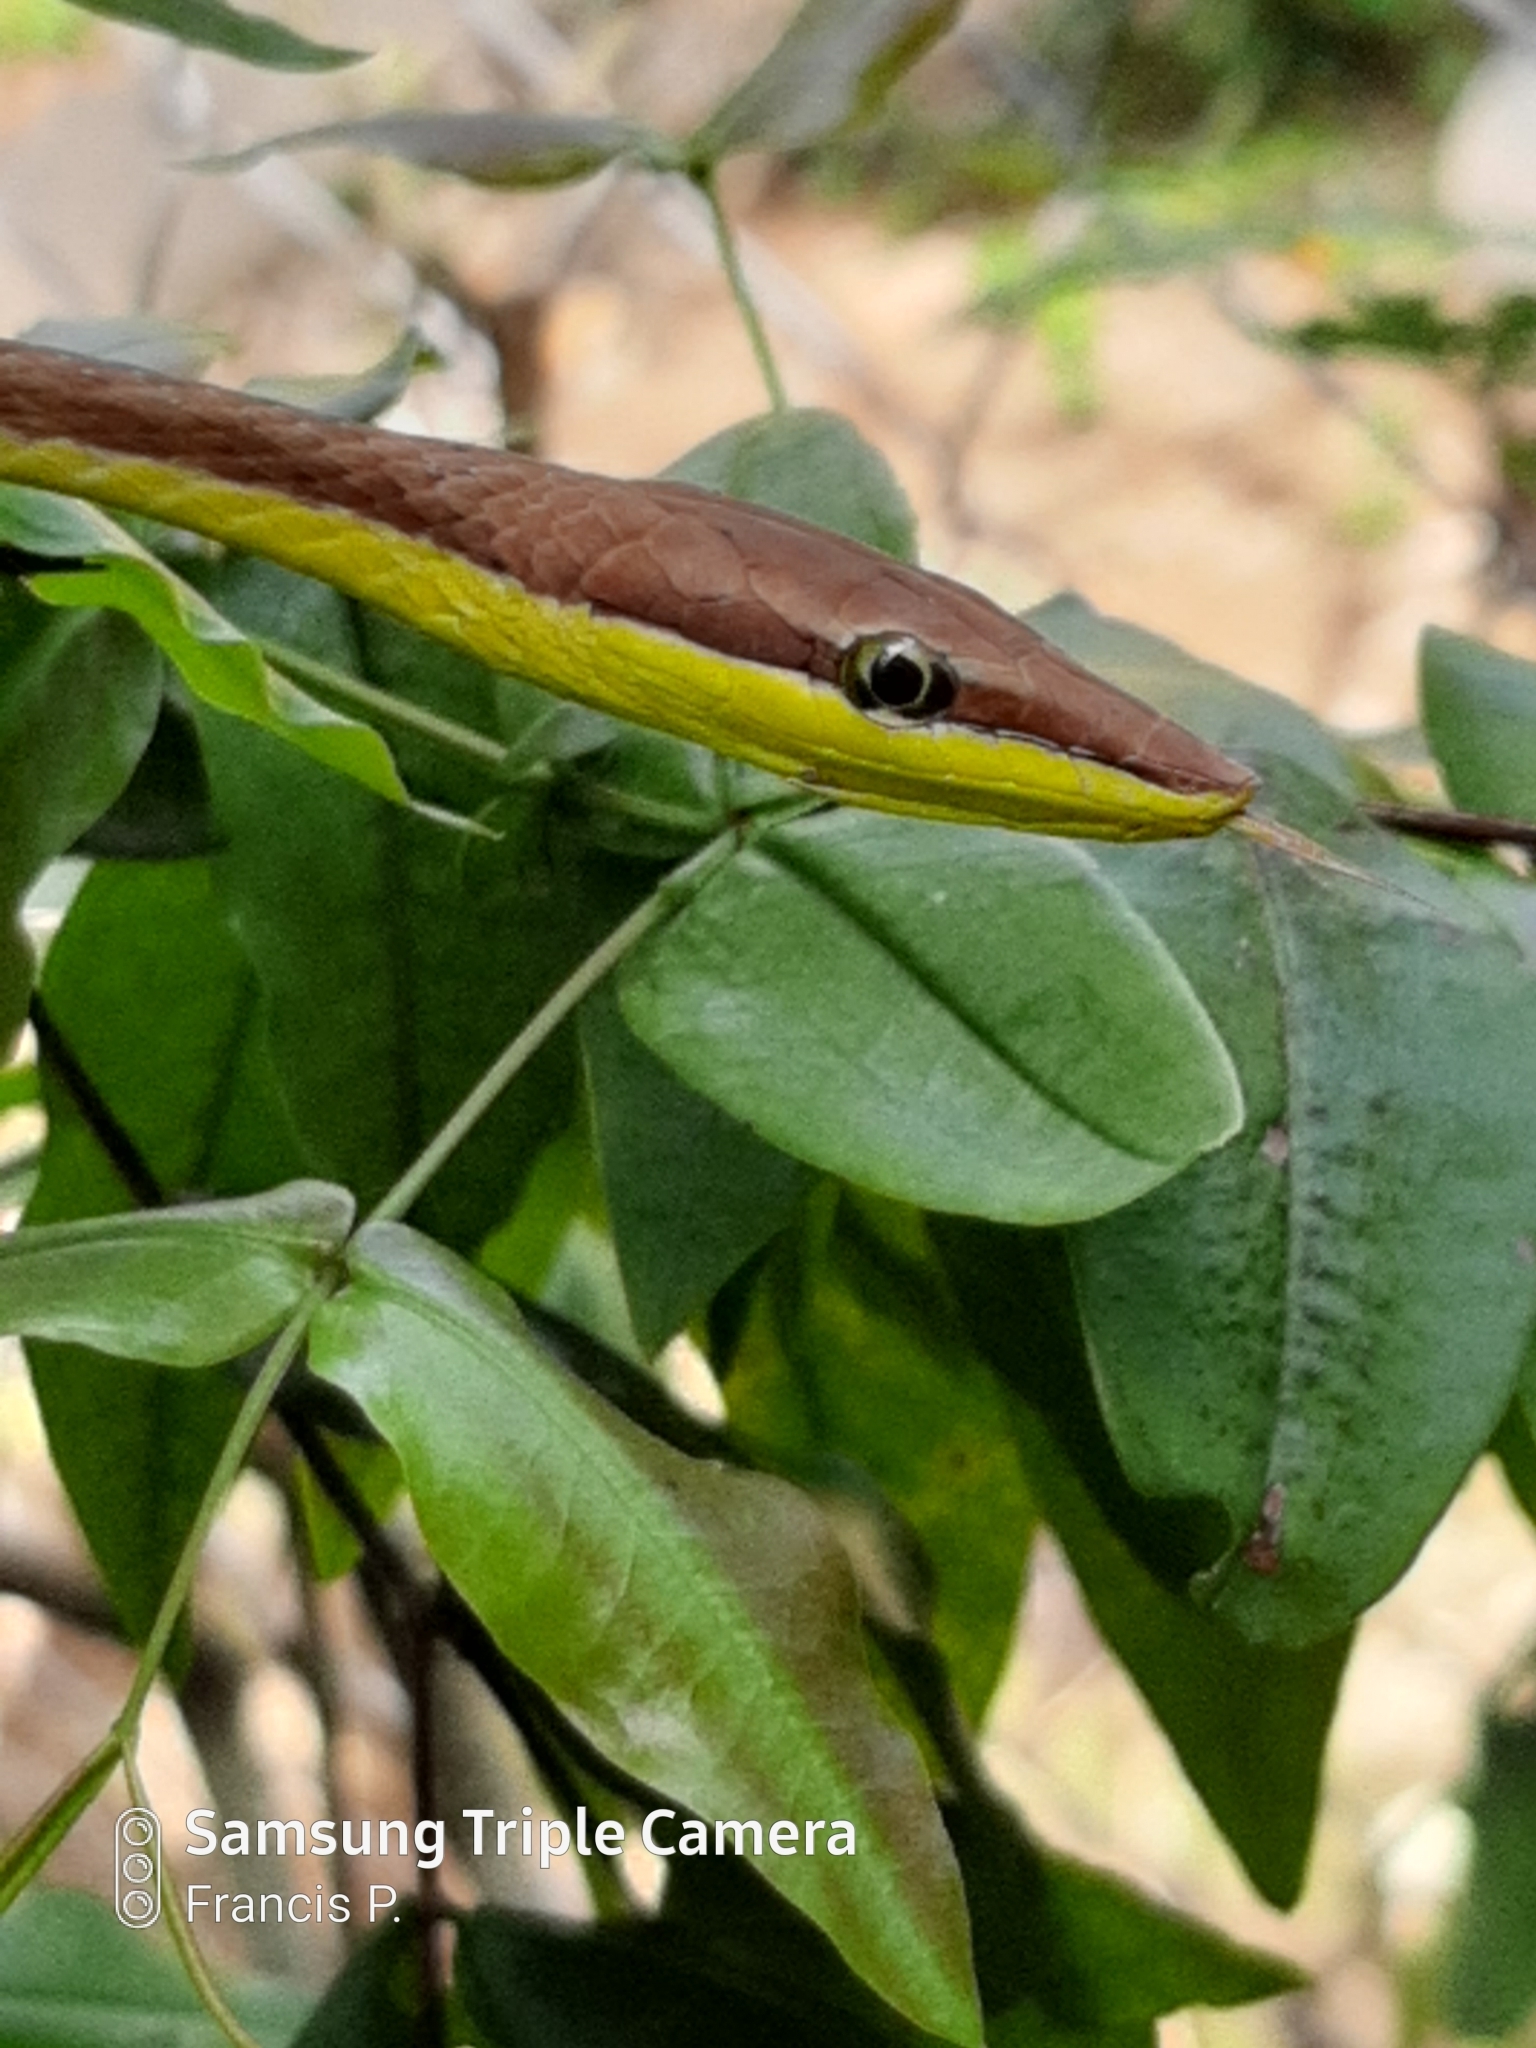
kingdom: Animalia
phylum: Chordata
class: Squamata
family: Colubridae
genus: Oxybelis
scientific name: Oxybelis vittatus
